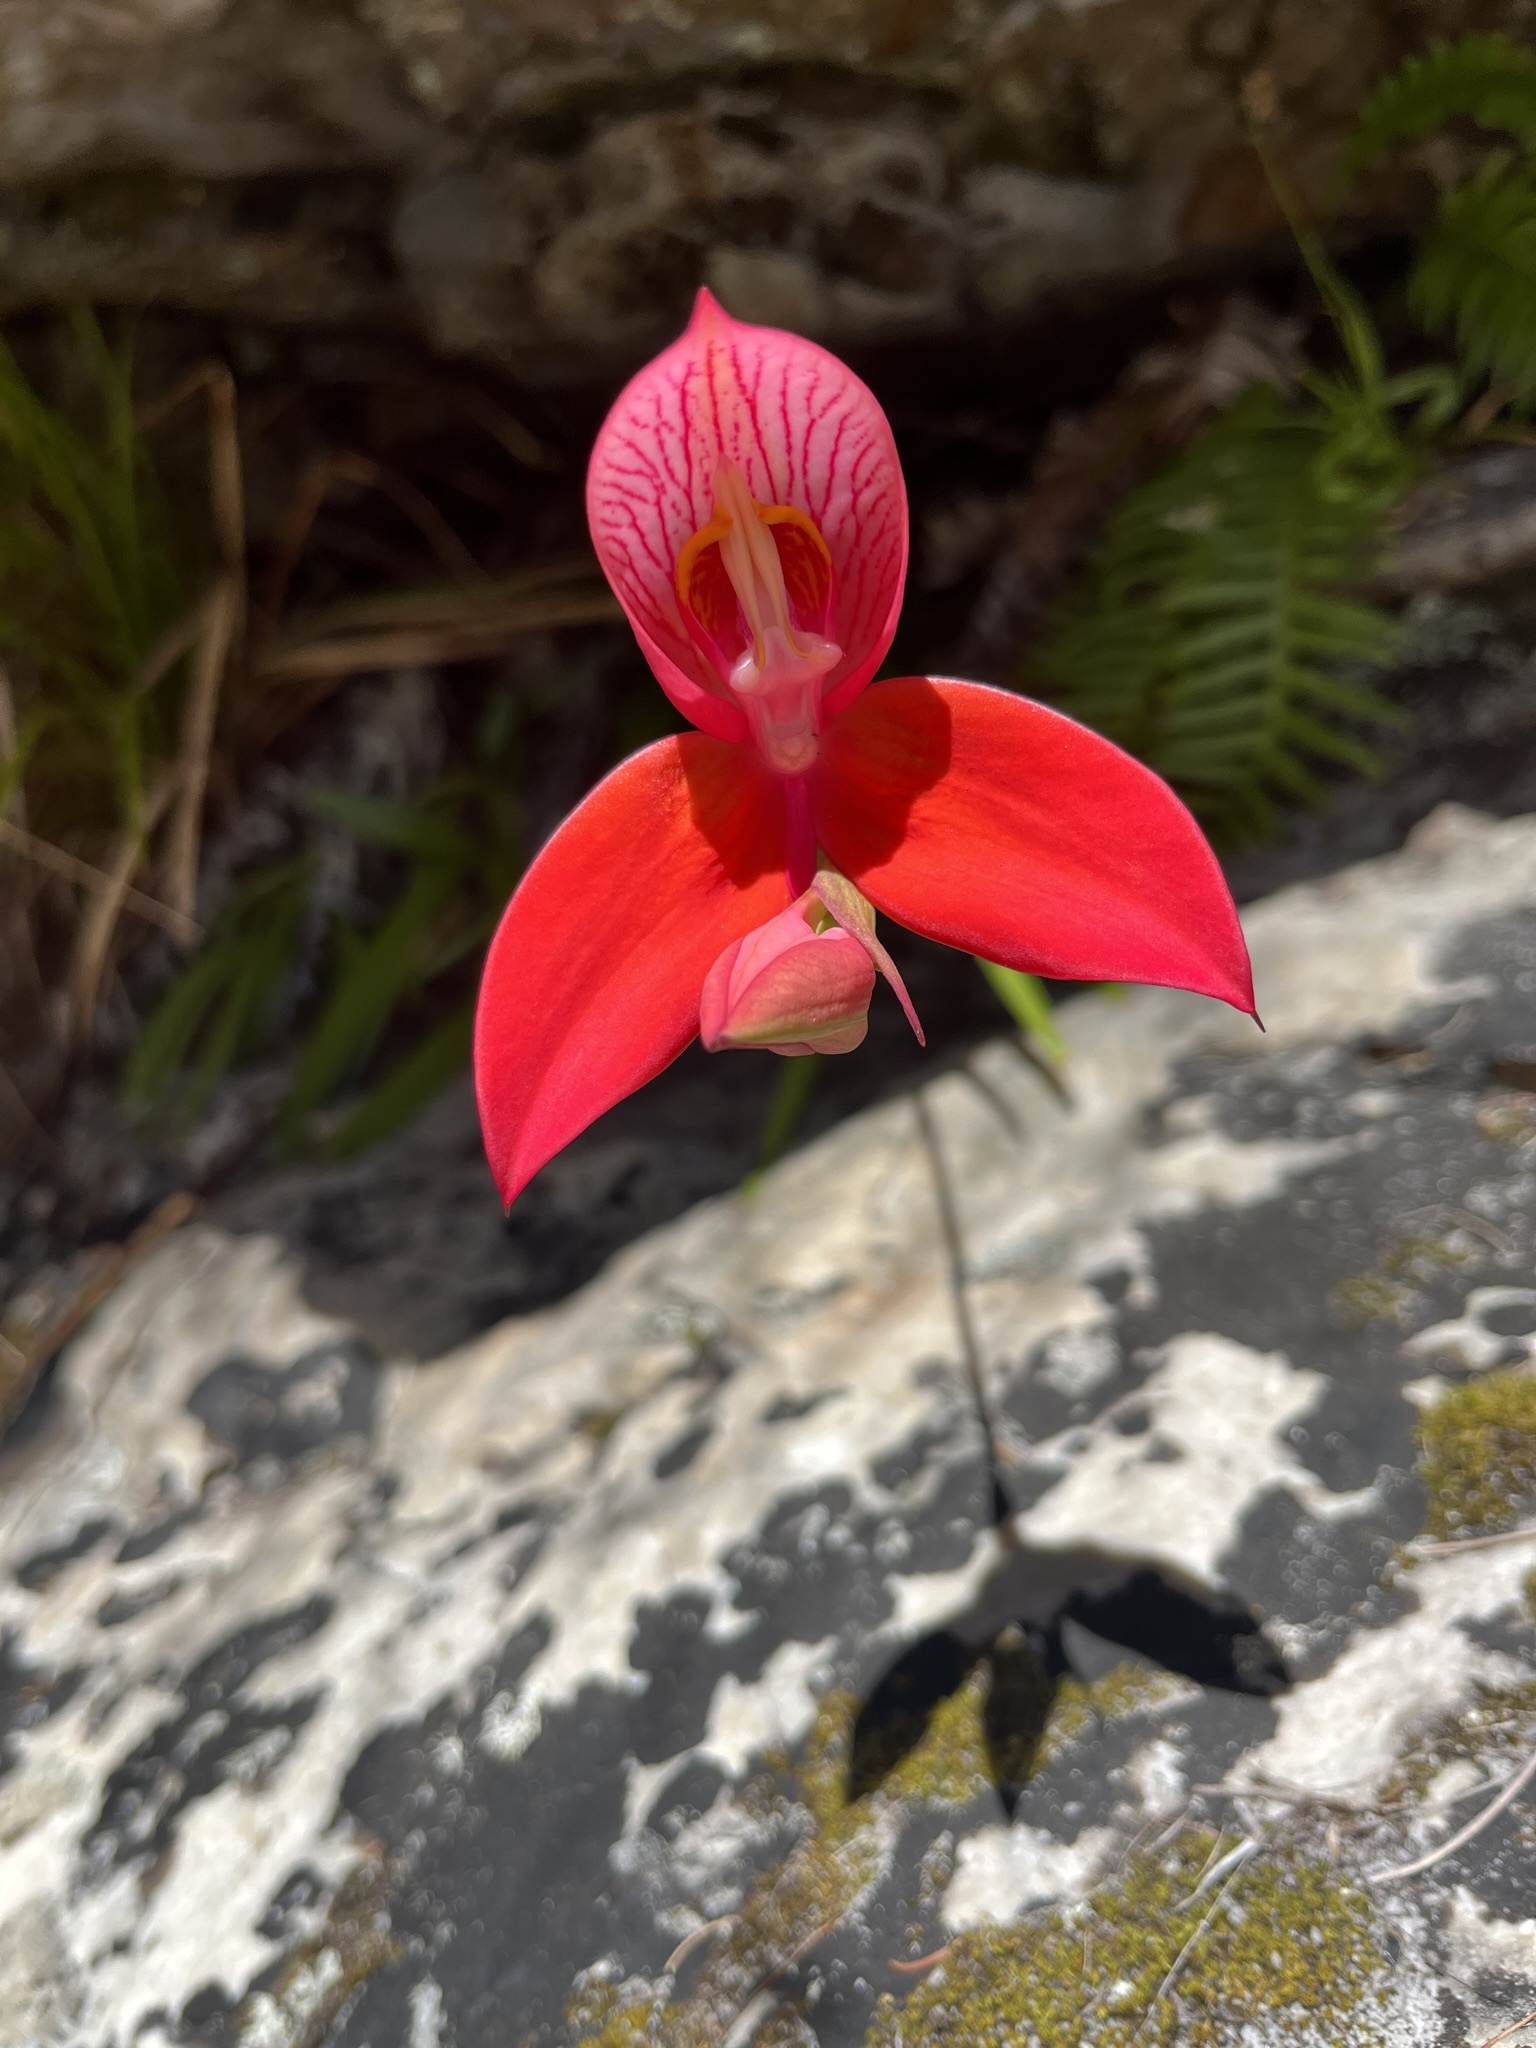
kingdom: Plantae
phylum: Tracheophyta
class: Liliopsida
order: Asparagales
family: Orchidaceae
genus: Disa
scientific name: Disa uniflora
